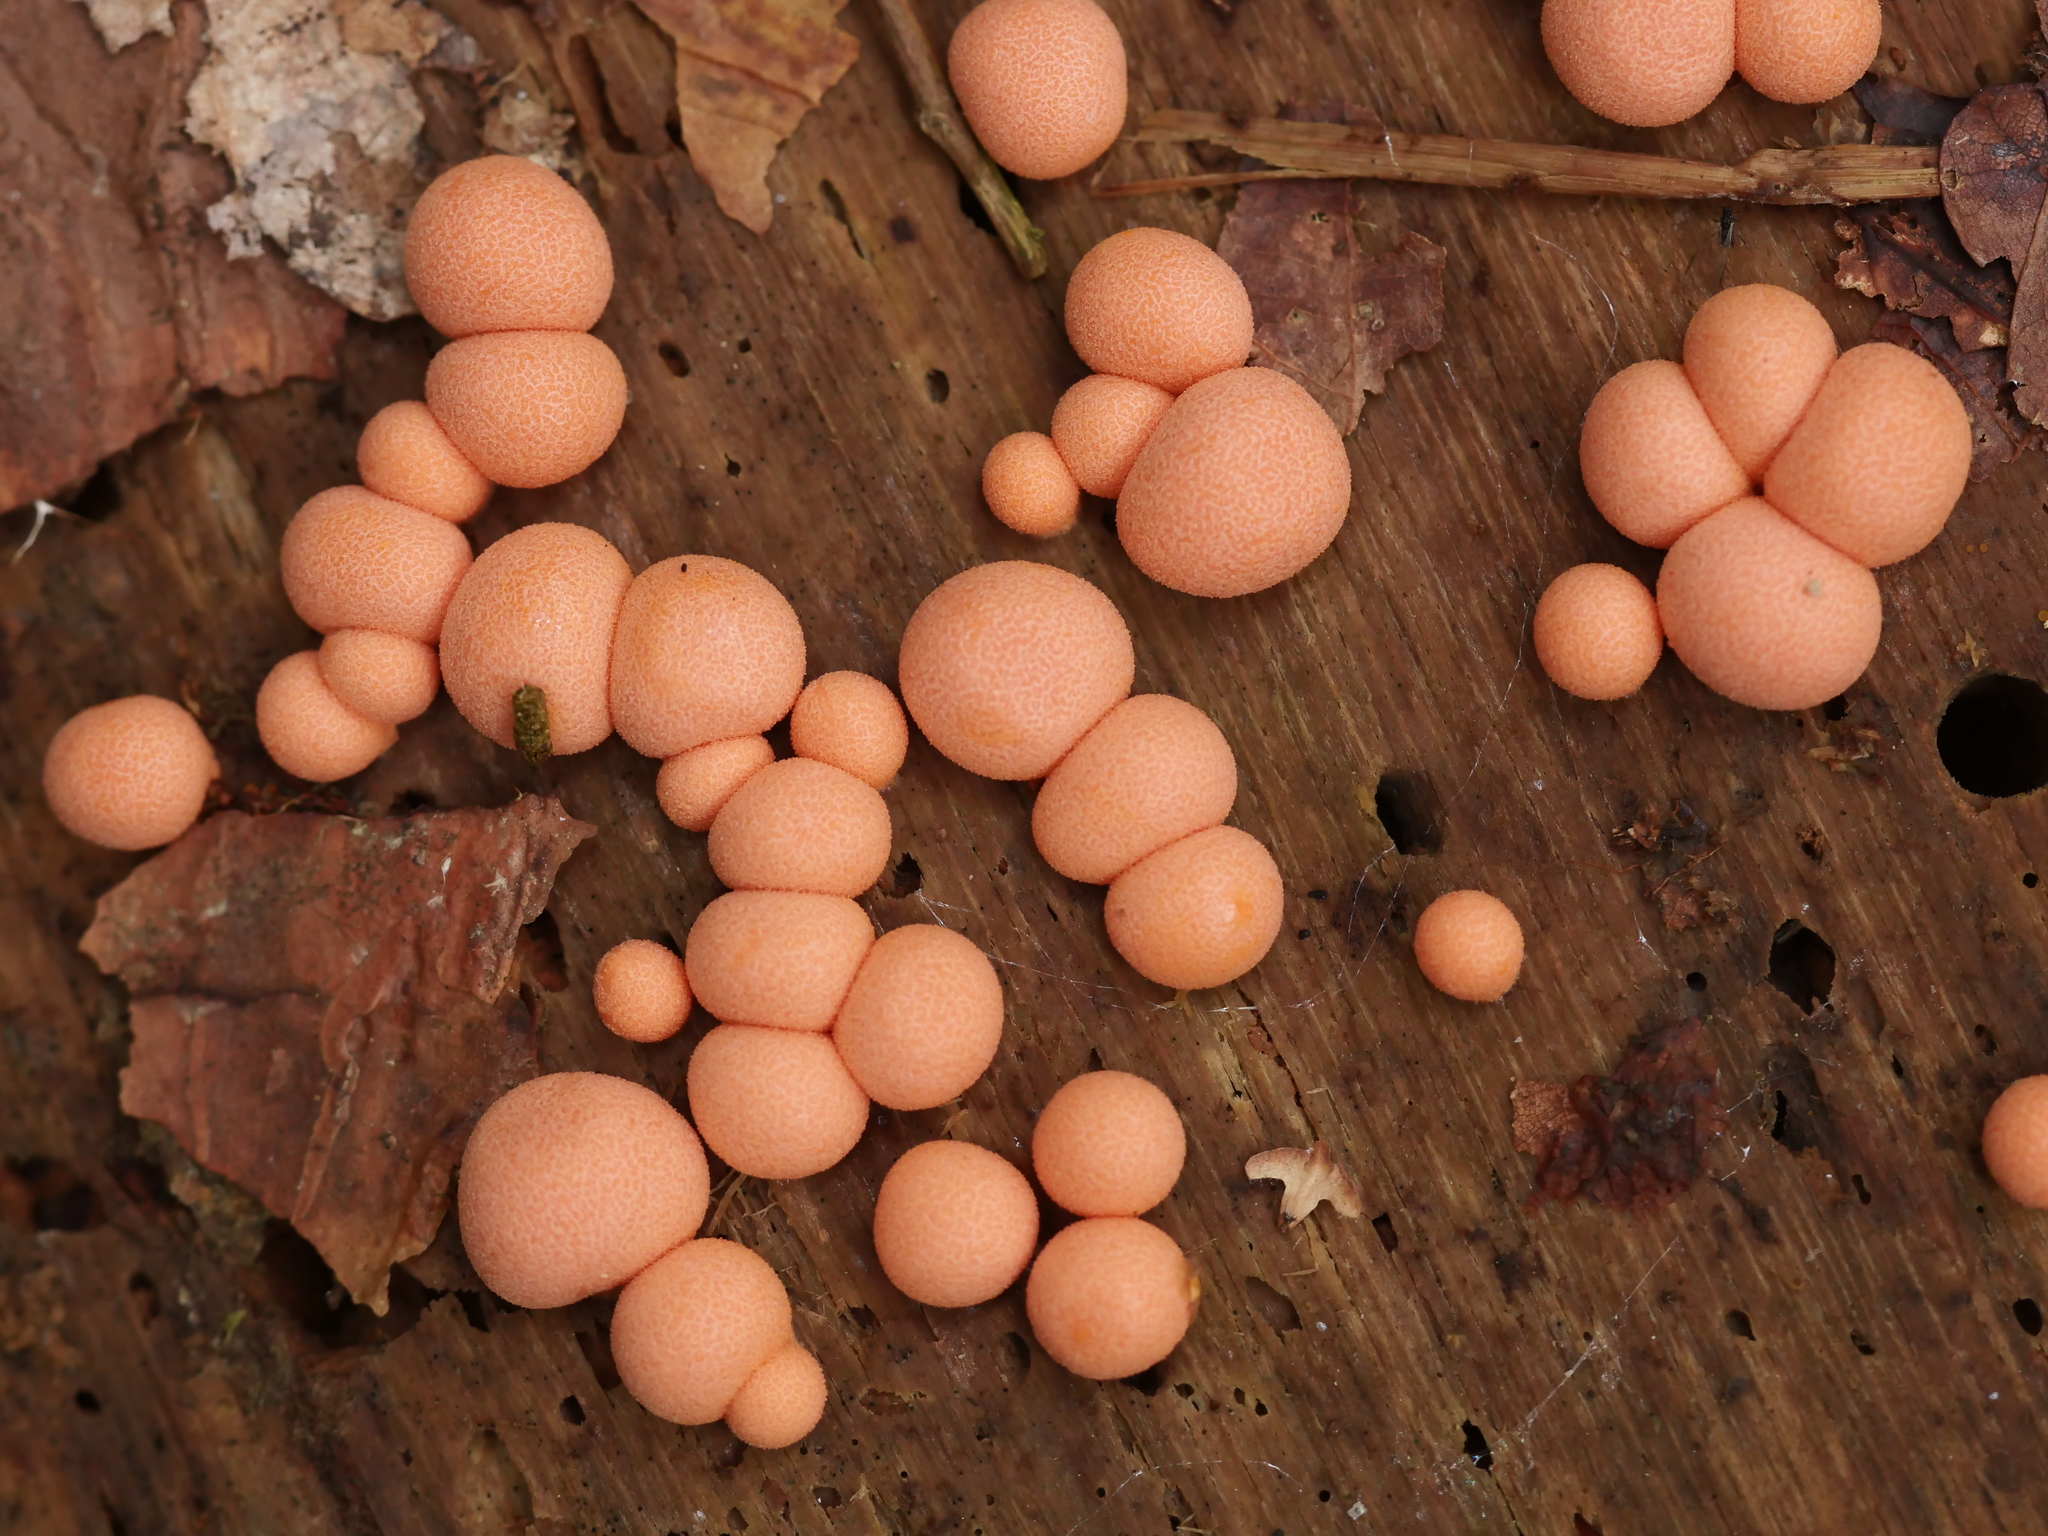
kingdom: Protozoa
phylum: Mycetozoa
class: Myxomycetes
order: Cribrariales
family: Tubiferaceae
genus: Lycogala
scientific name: Lycogala epidendrum
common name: Wolf's milk
